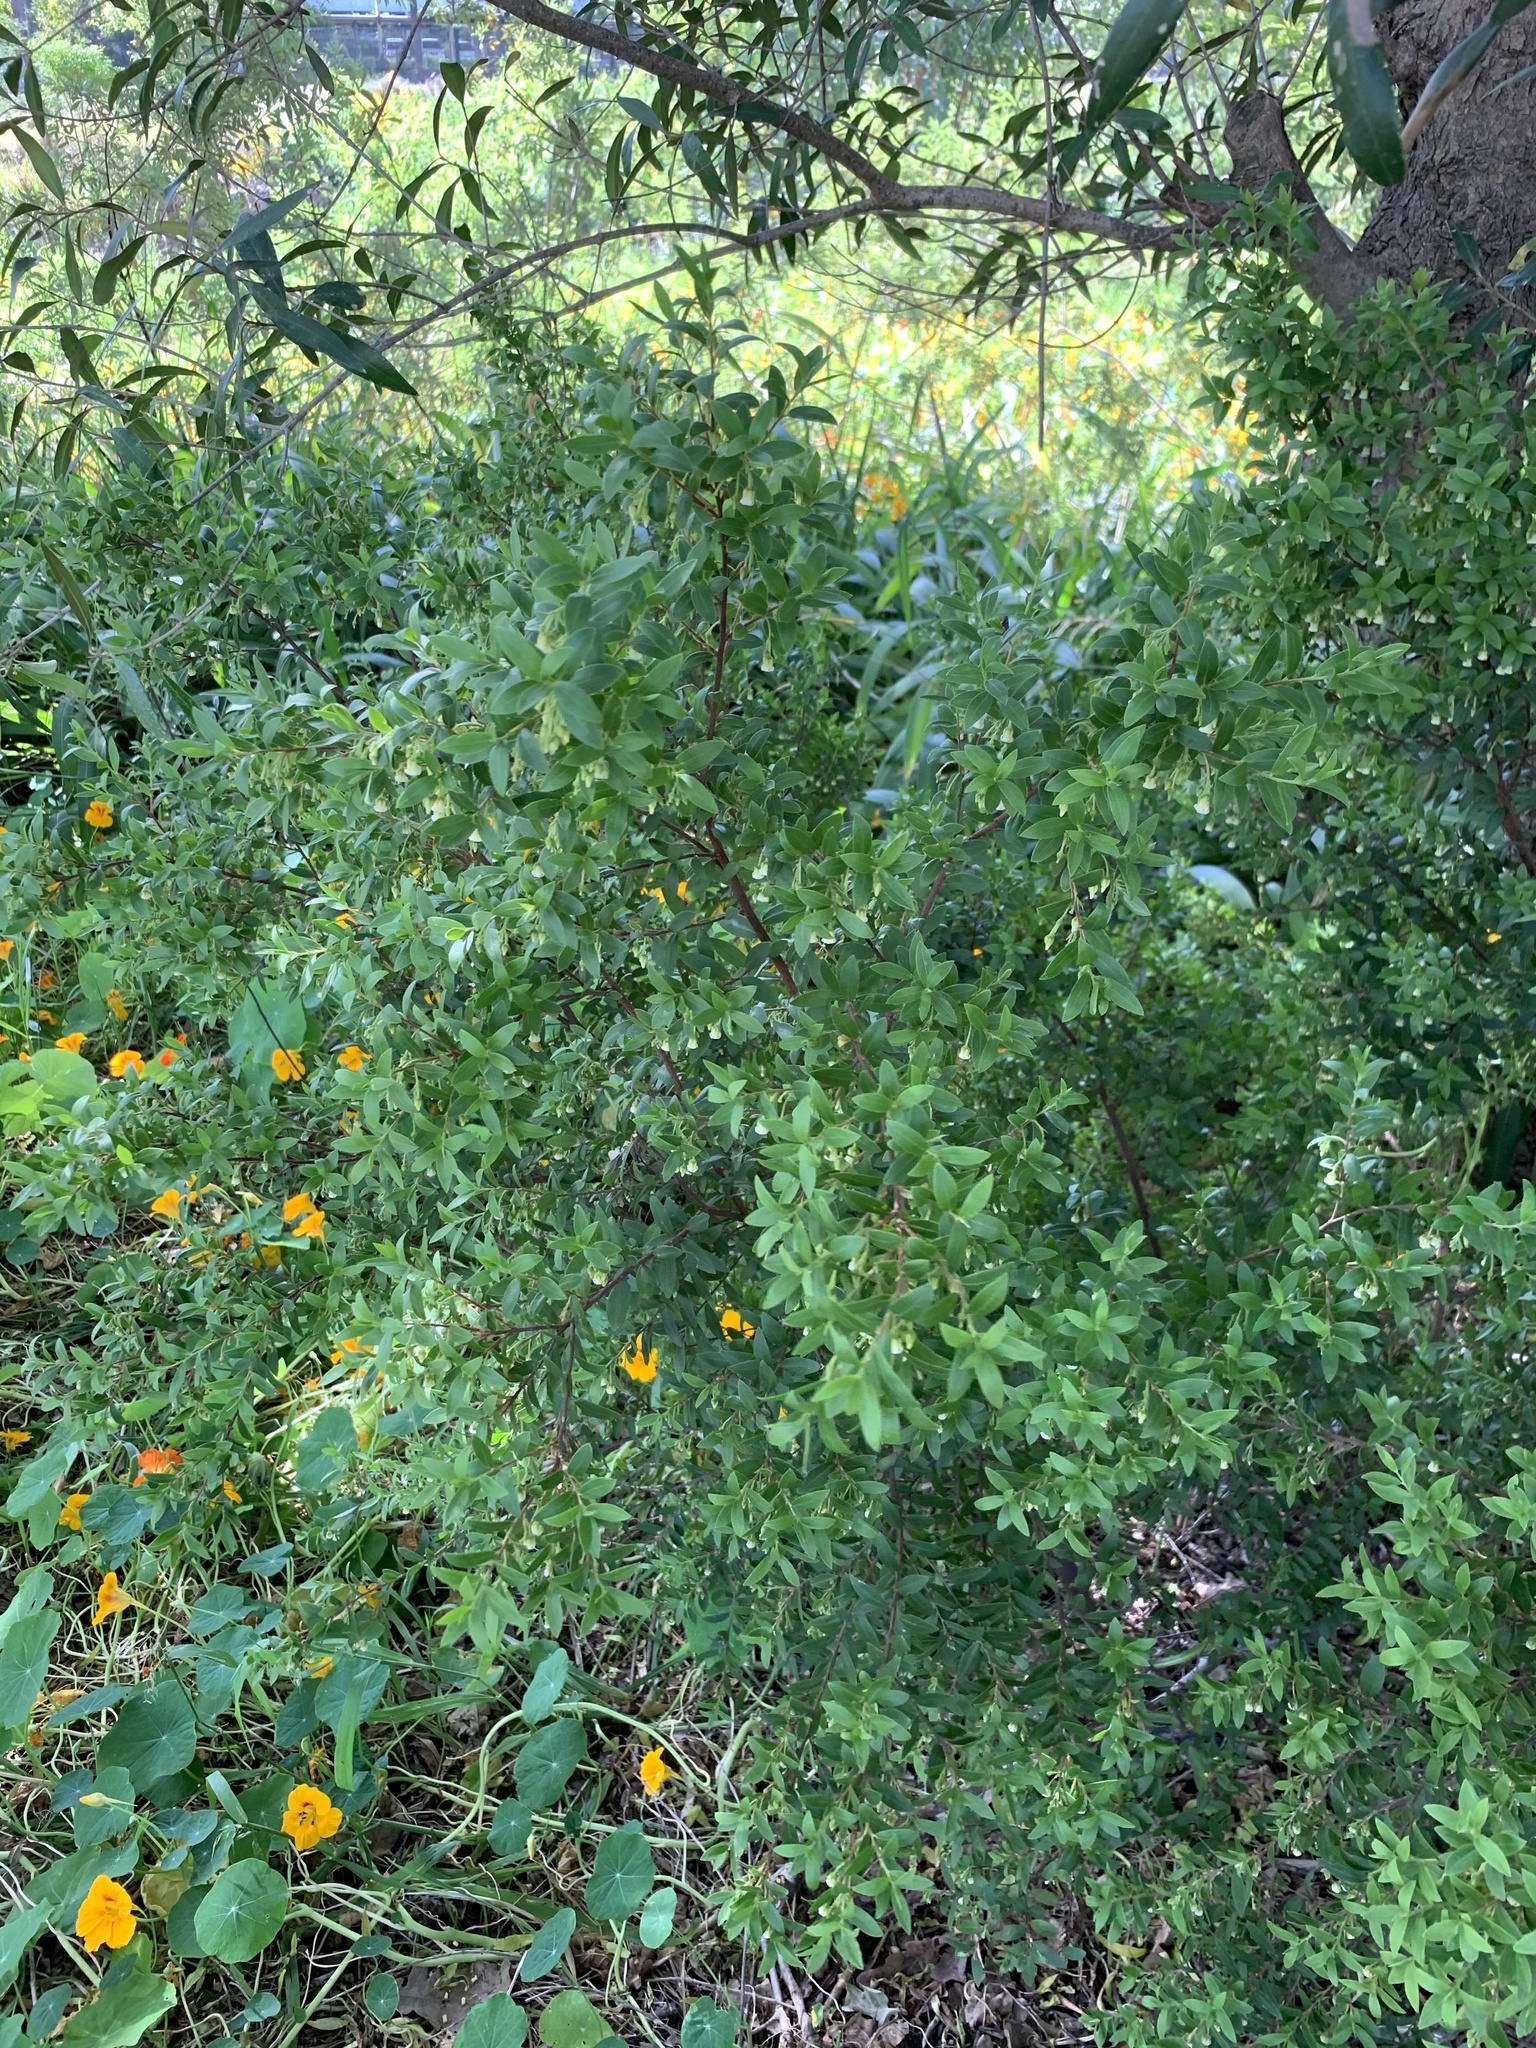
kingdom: Plantae
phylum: Tracheophyta
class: Magnoliopsida
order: Ericales
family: Ebenaceae
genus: Diospyros
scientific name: Diospyros glabra
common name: Fynbos star apple
